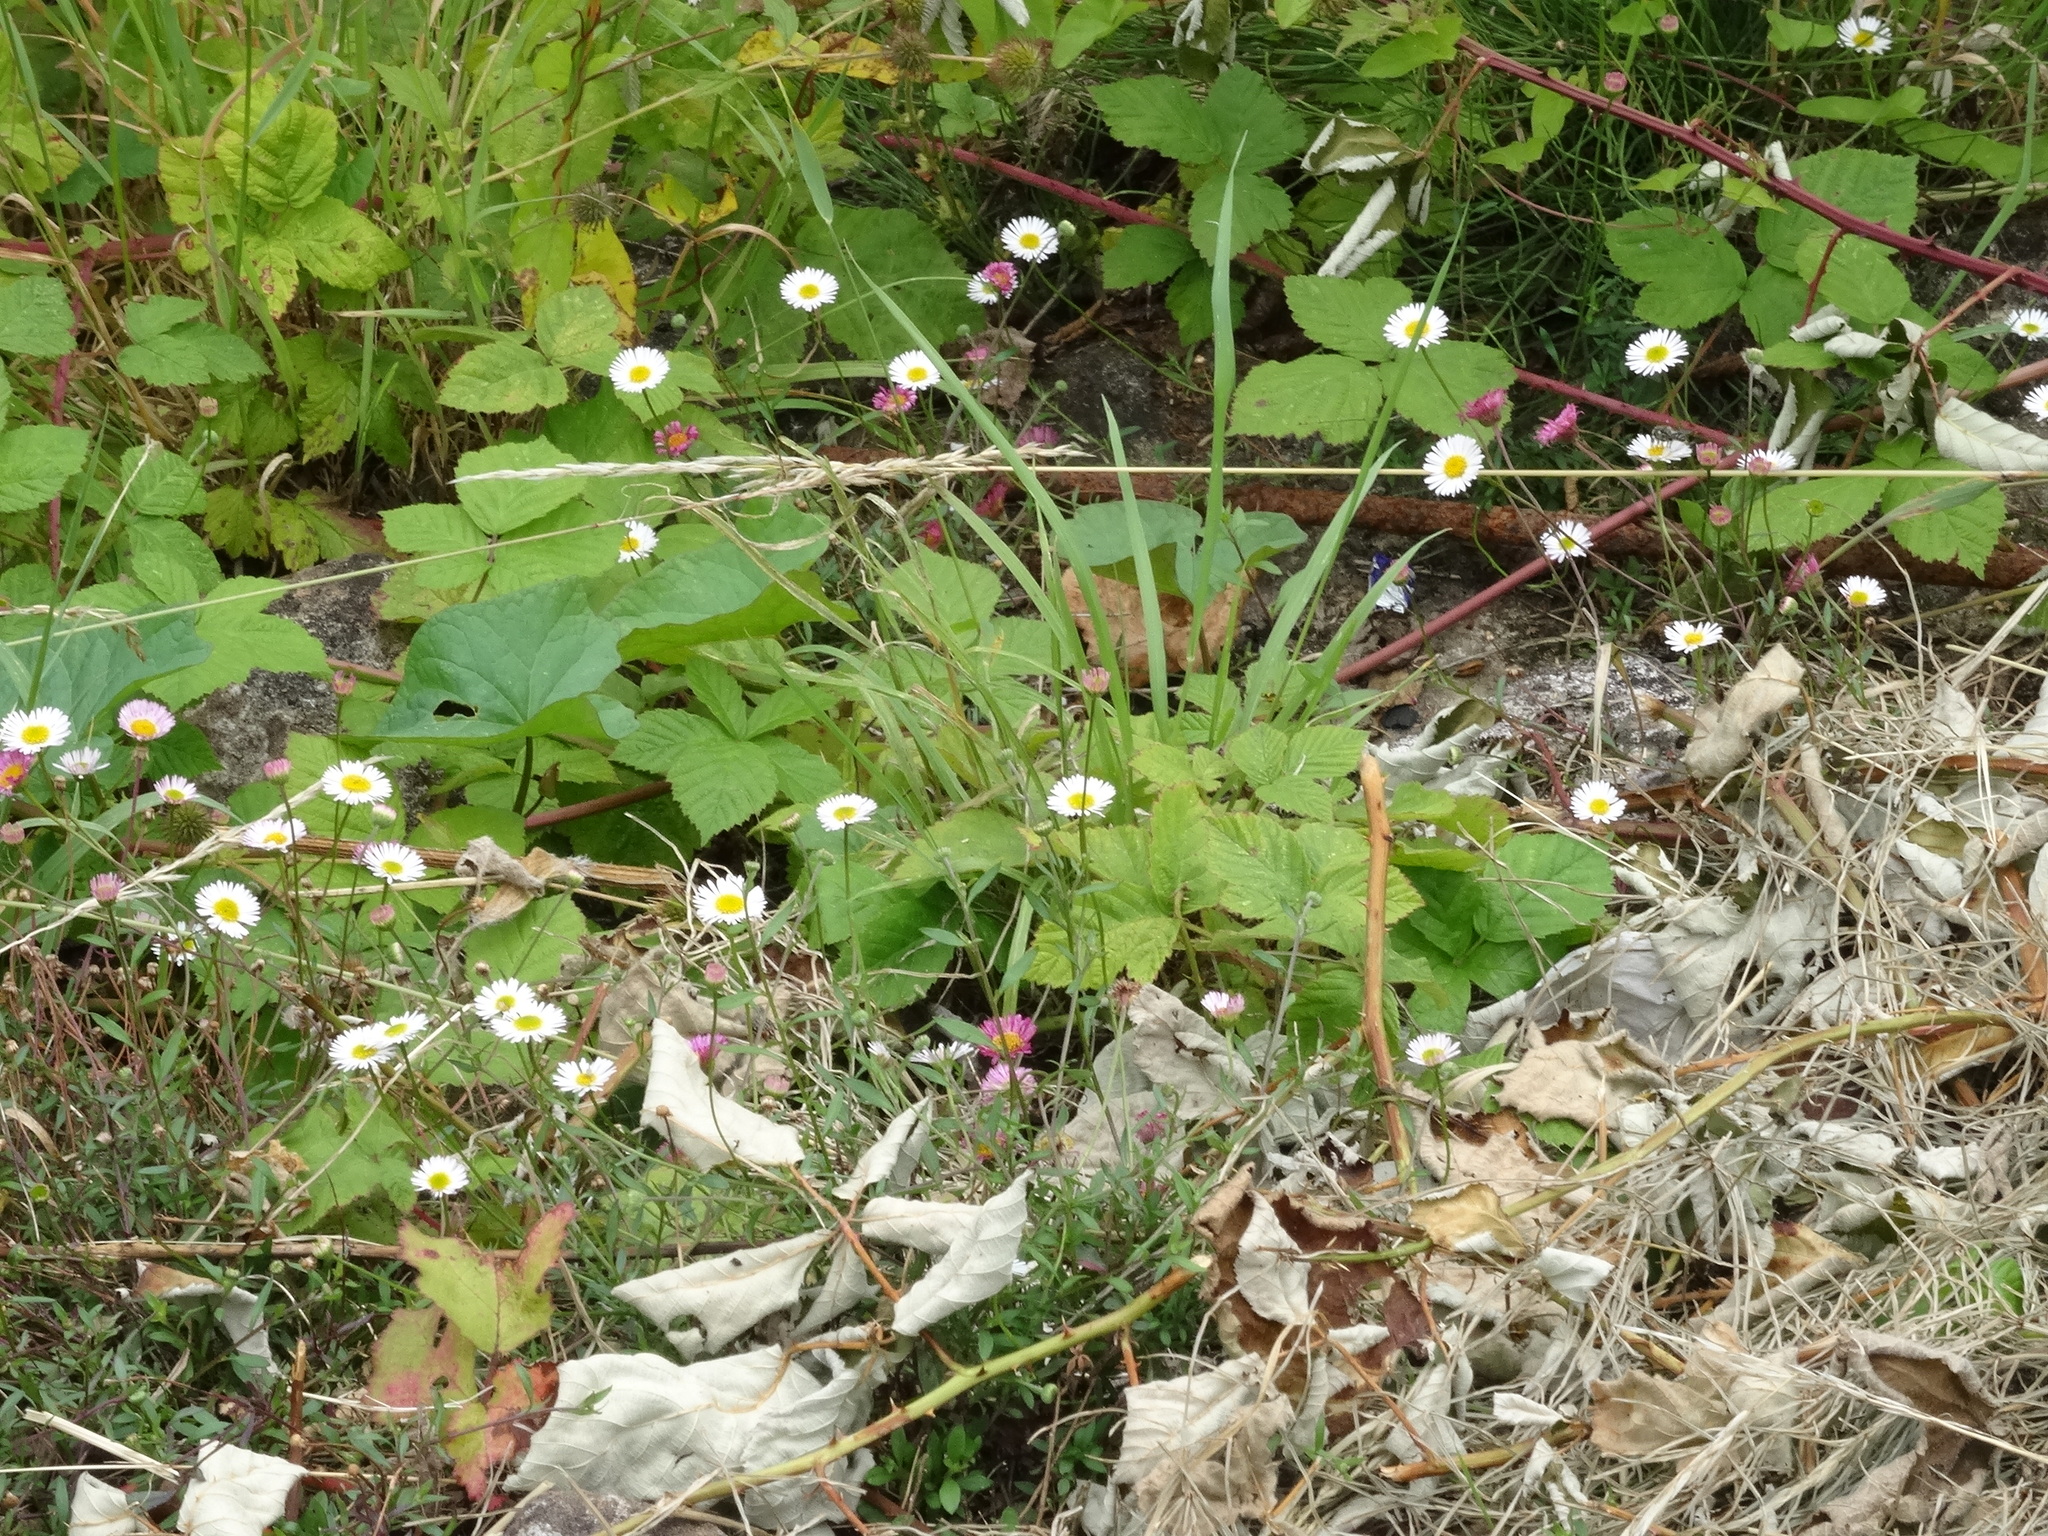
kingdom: Plantae
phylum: Tracheophyta
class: Magnoliopsida
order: Asterales
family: Asteraceae
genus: Erigeron
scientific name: Erigeron karvinskianus
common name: Mexican fleabane
